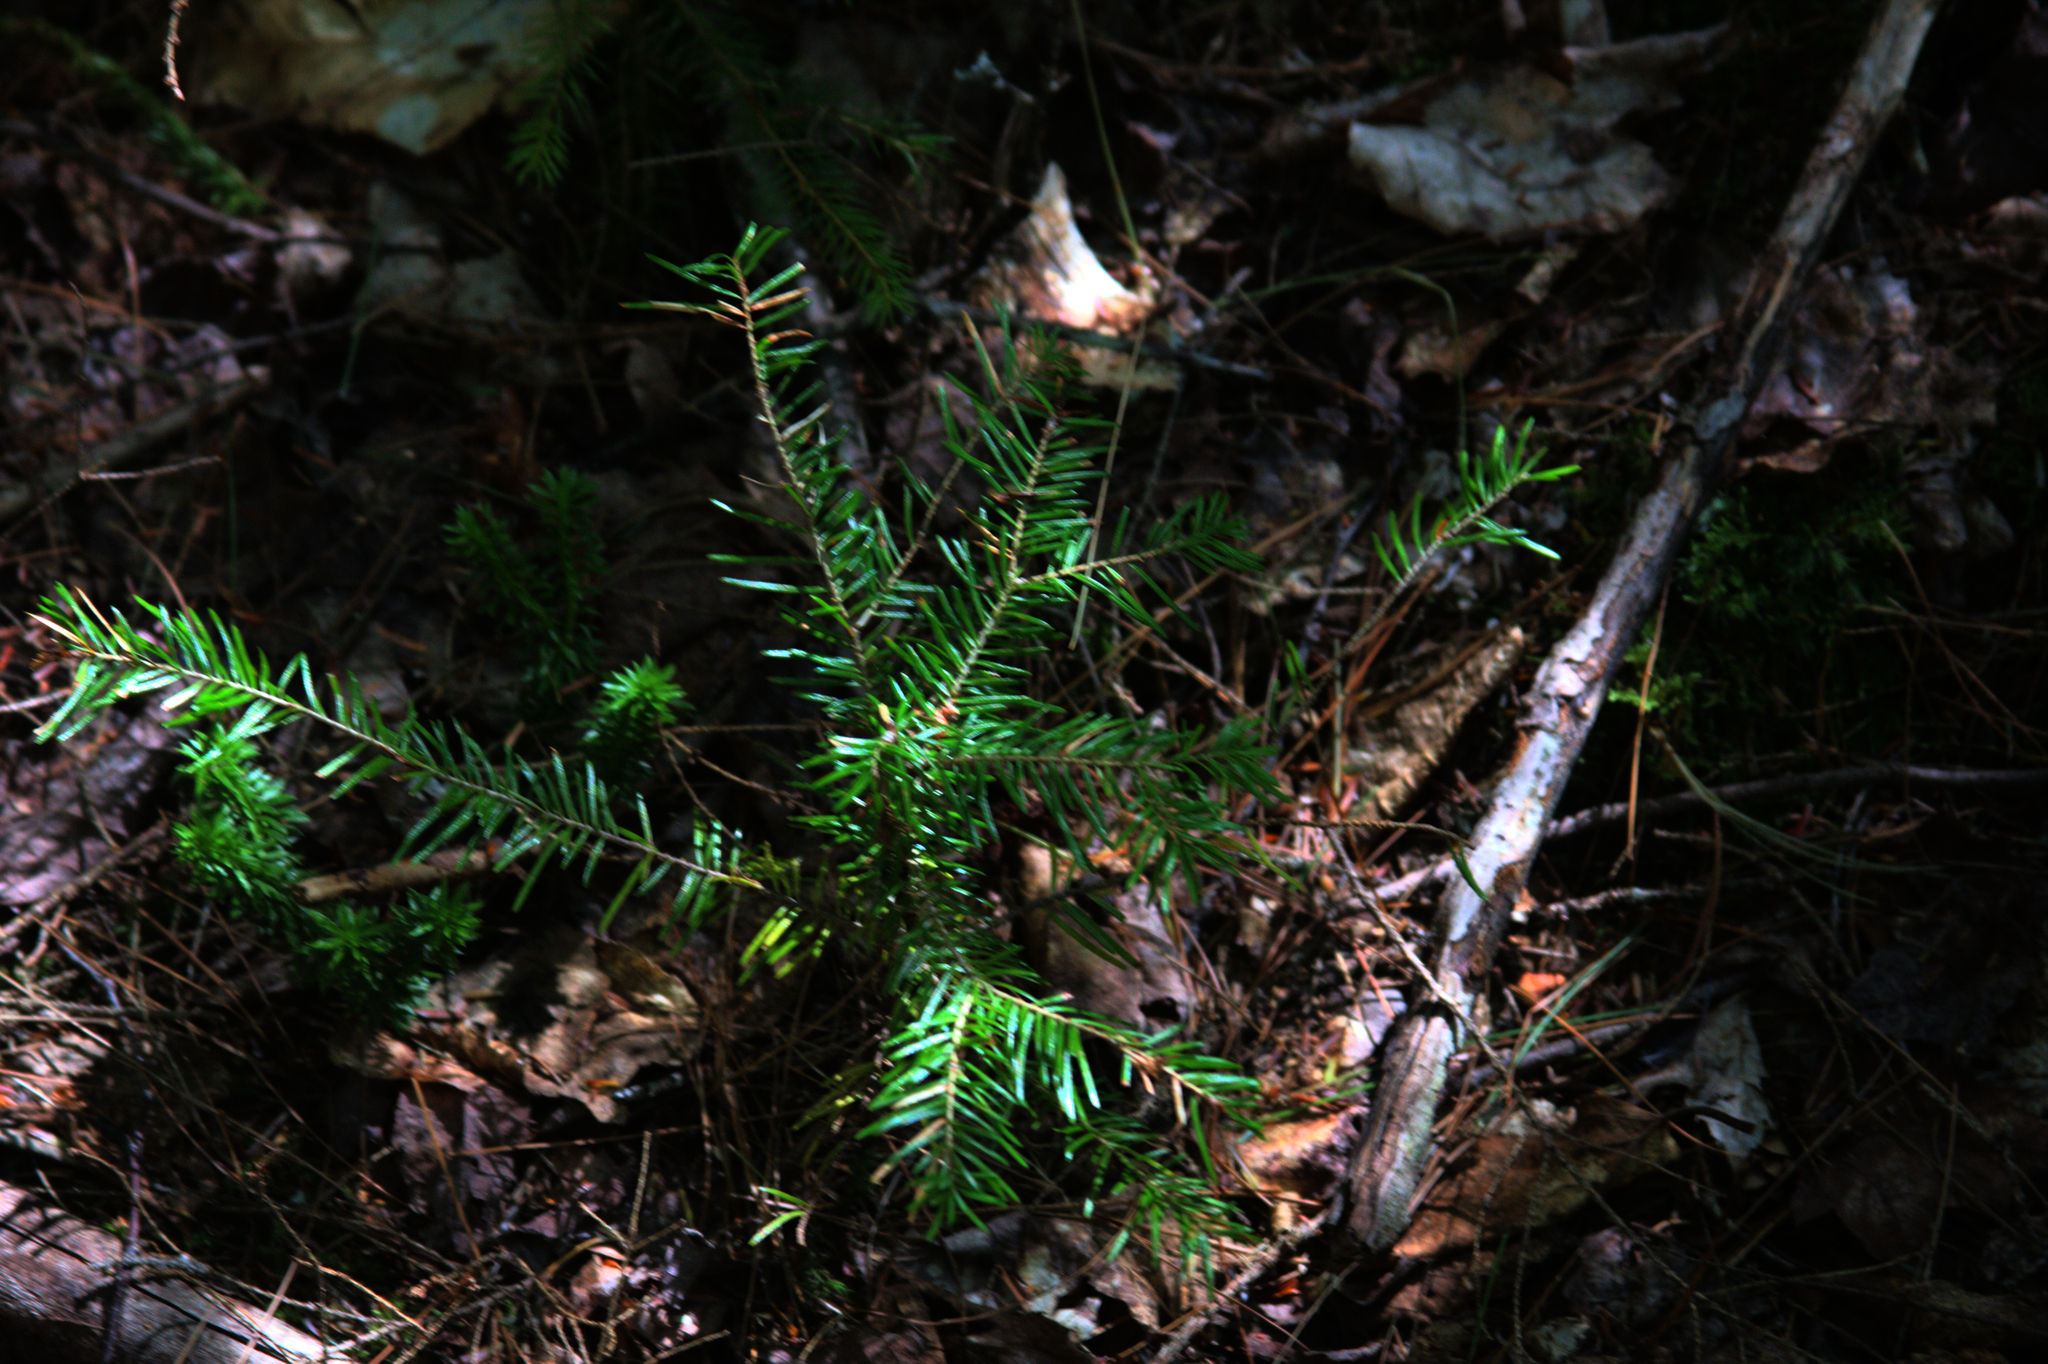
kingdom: Plantae
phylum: Tracheophyta
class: Pinopsida
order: Pinales
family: Pinaceae
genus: Tsuga
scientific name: Tsuga canadensis
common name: Eastern hemlock
